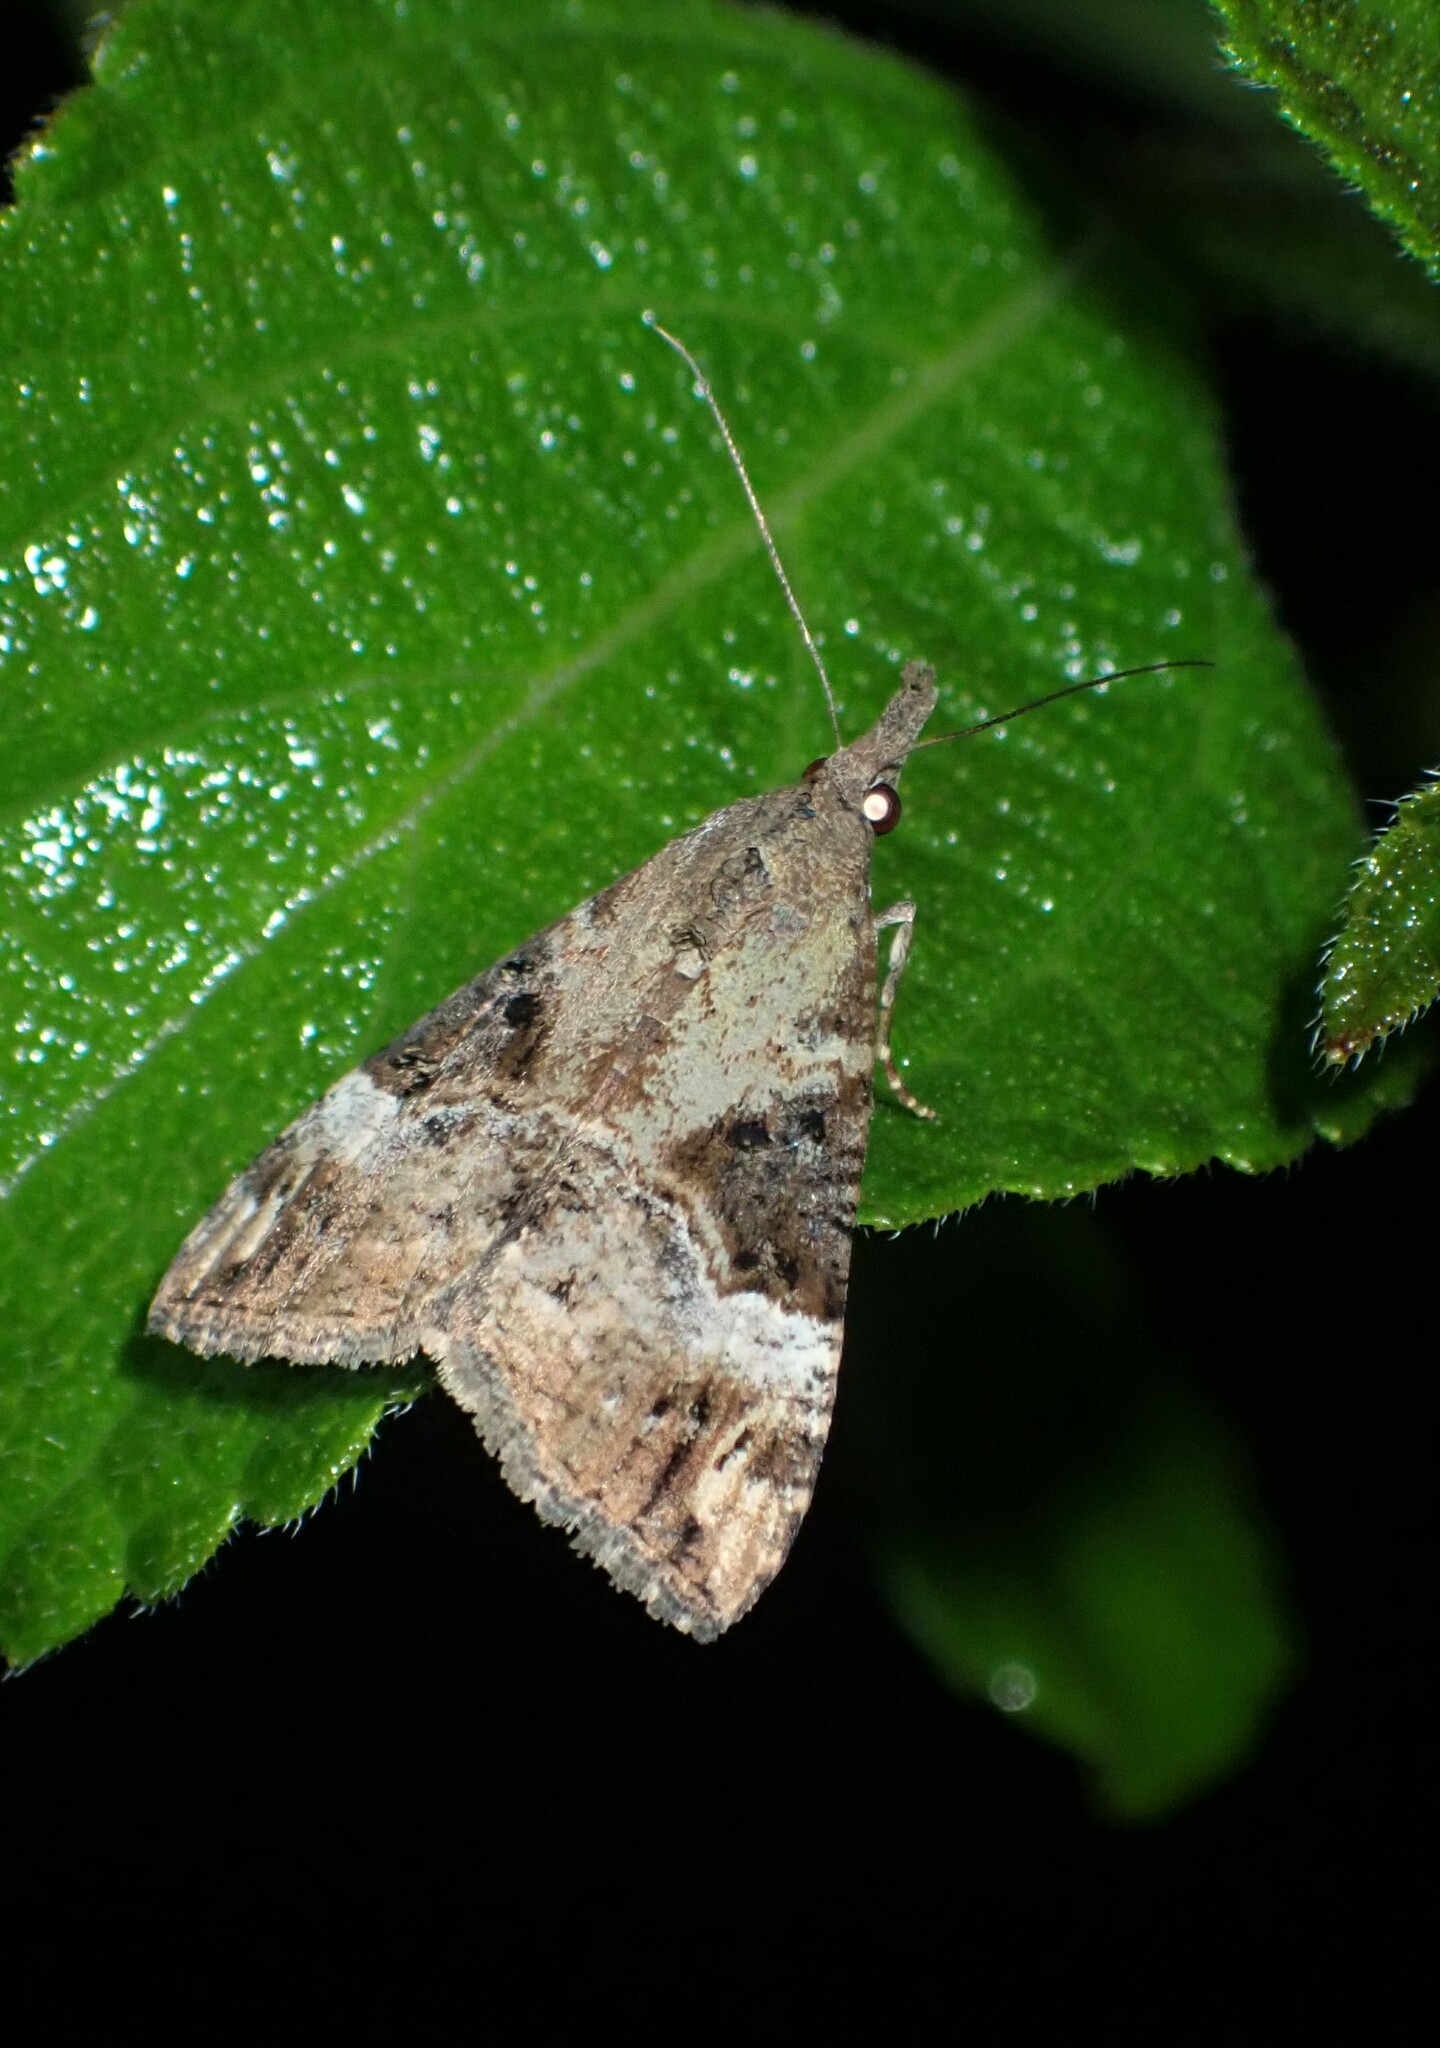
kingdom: Animalia
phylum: Arthropoda
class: Insecta
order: Lepidoptera
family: Erebidae
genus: Hypena
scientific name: Hypena obsitalis
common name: Bloxworth snout
